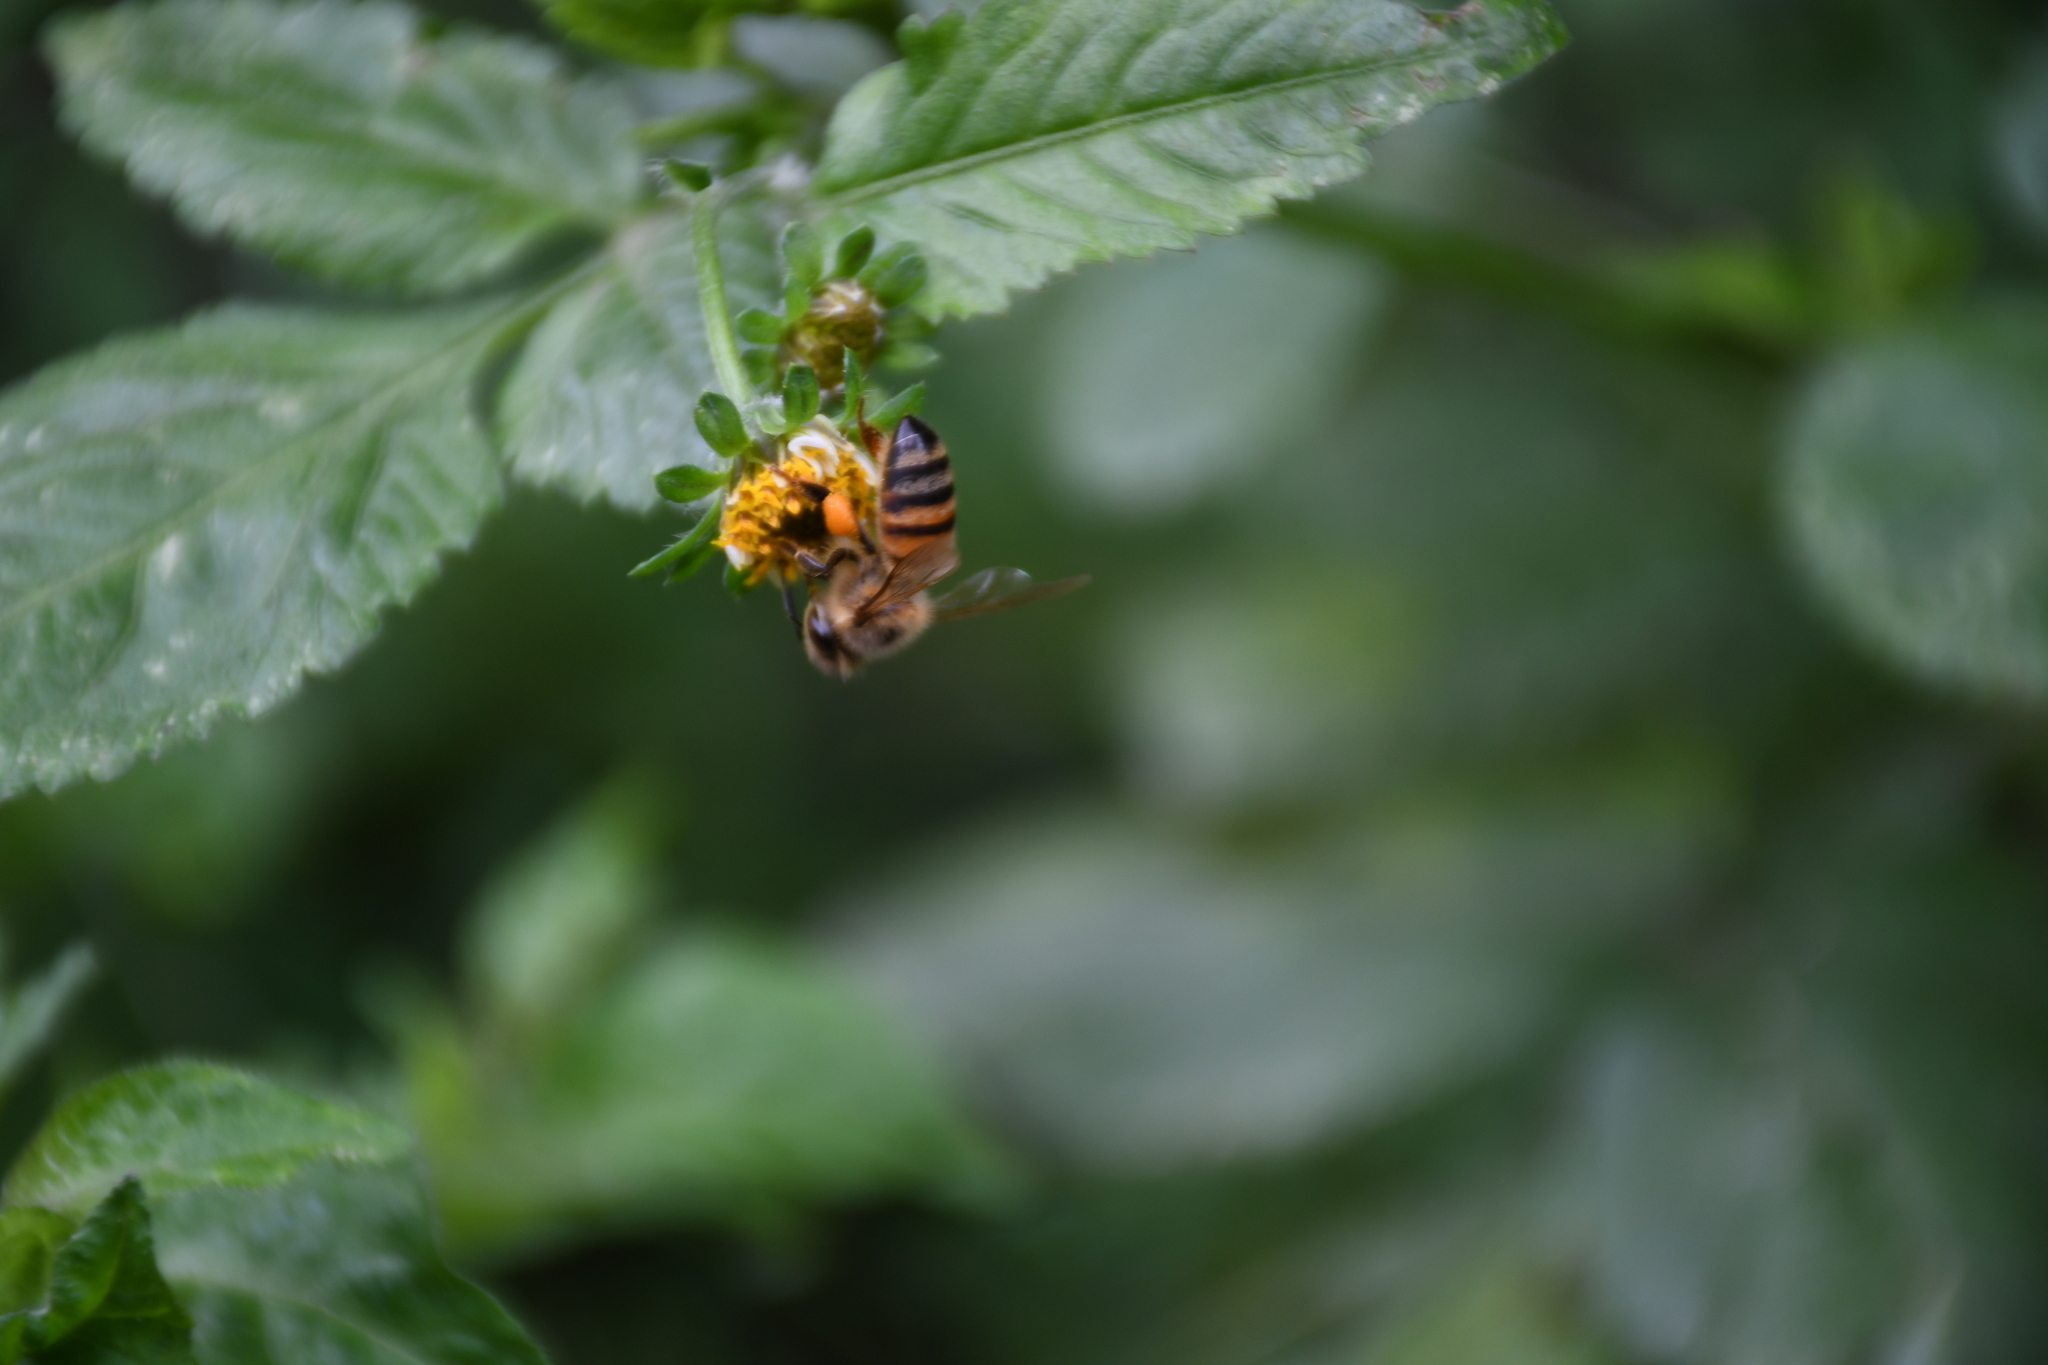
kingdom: Animalia
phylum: Arthropoda
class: Insecta
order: Hymenoptera
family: Apidae
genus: Apis
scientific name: Apis mellifera
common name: Honey bee
